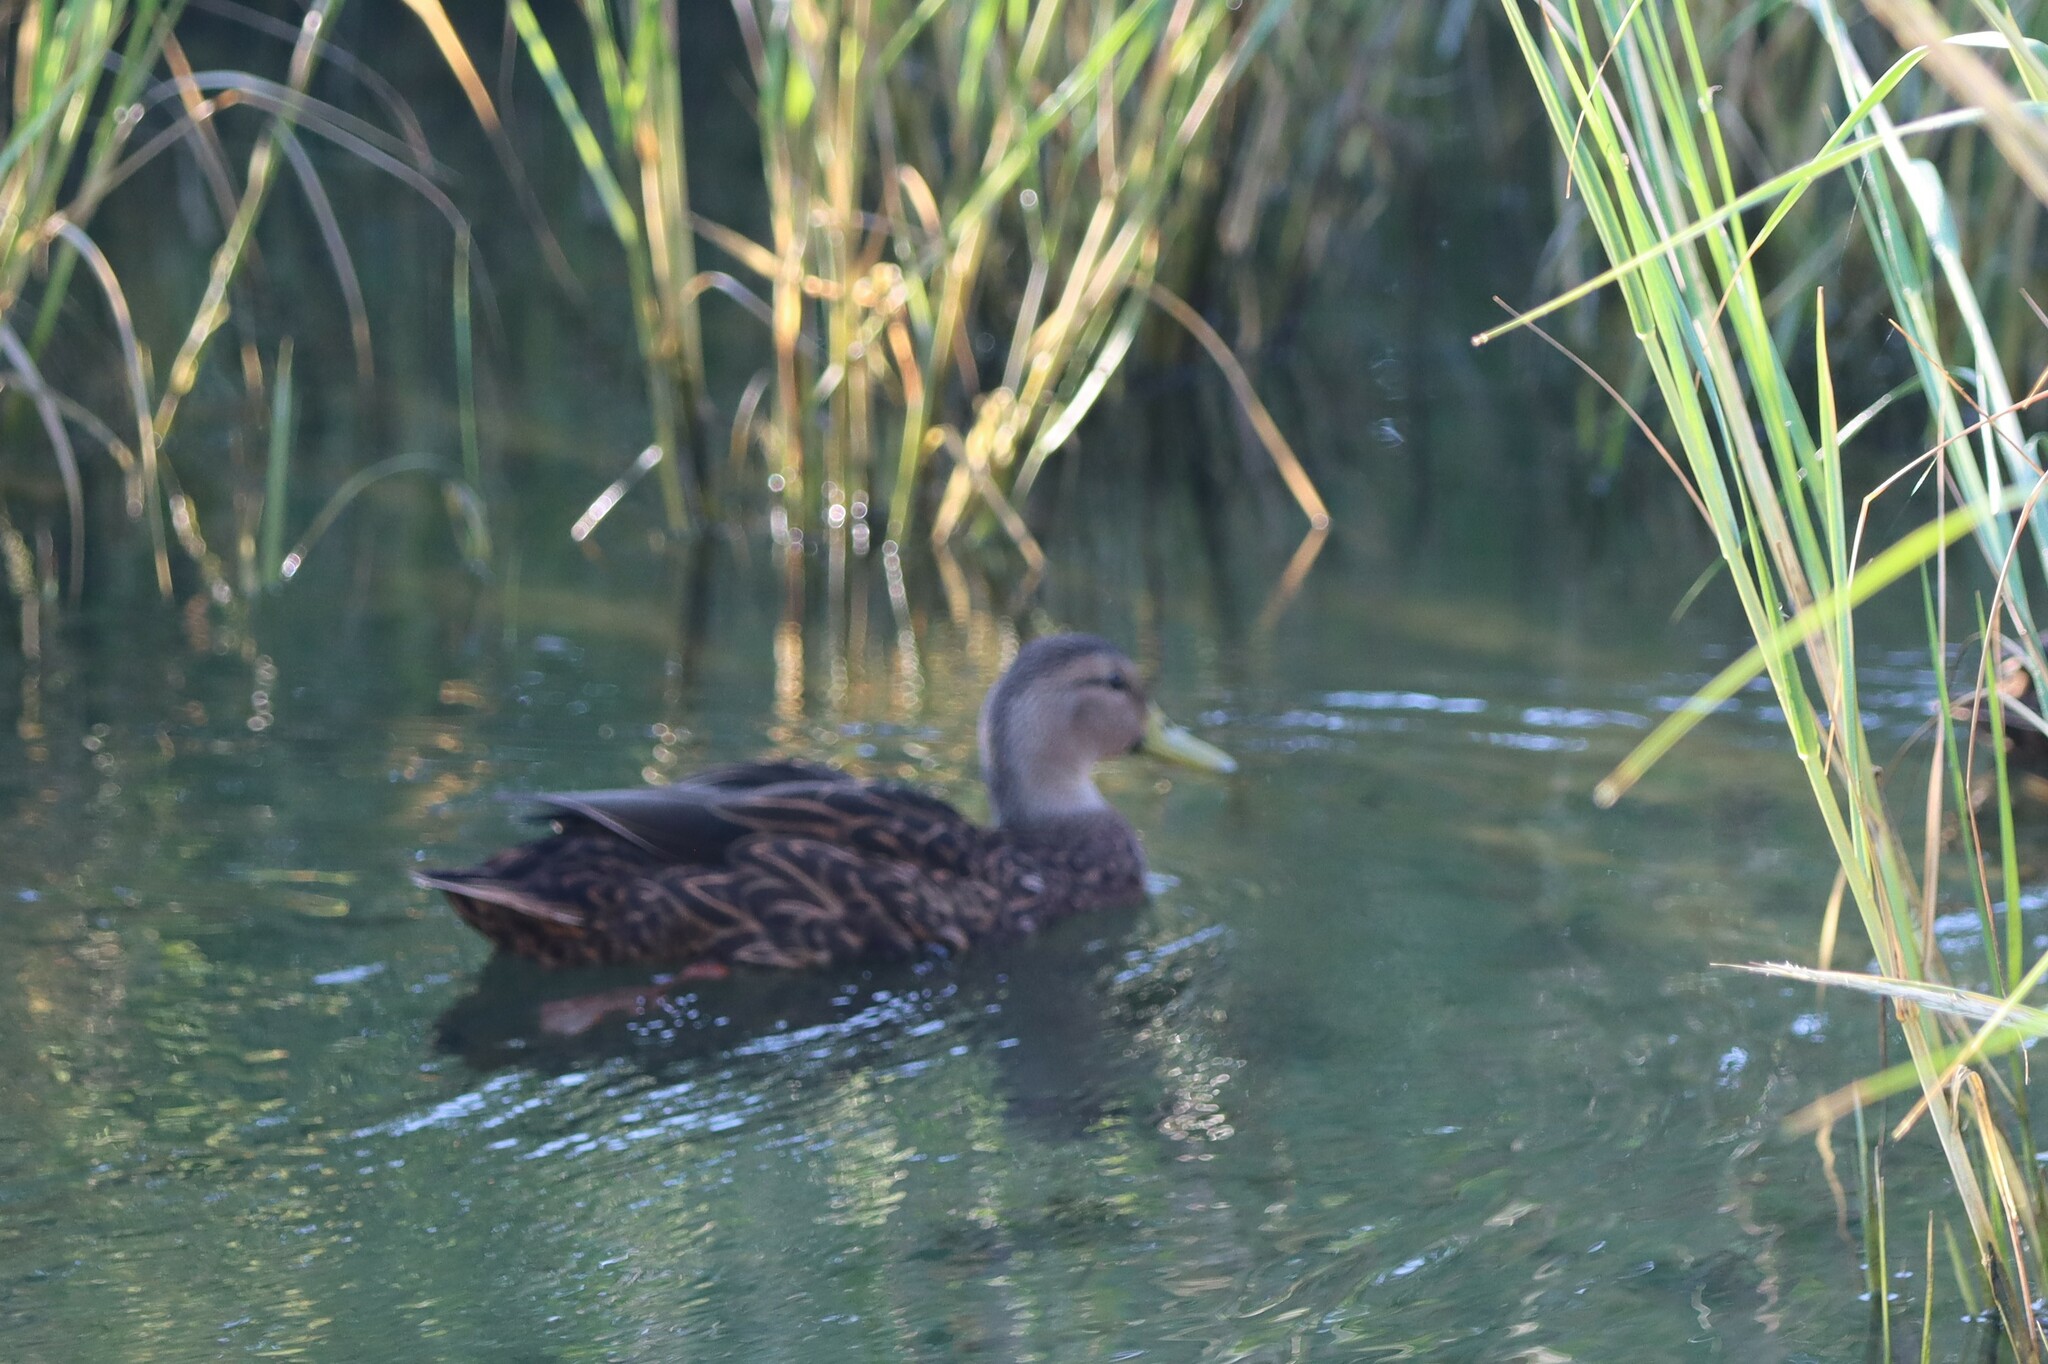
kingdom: Animalia
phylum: Chordata
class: Aves
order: Anseriformes
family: Anatidae
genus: Anas
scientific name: Anas fulvigula
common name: Mottled duck
